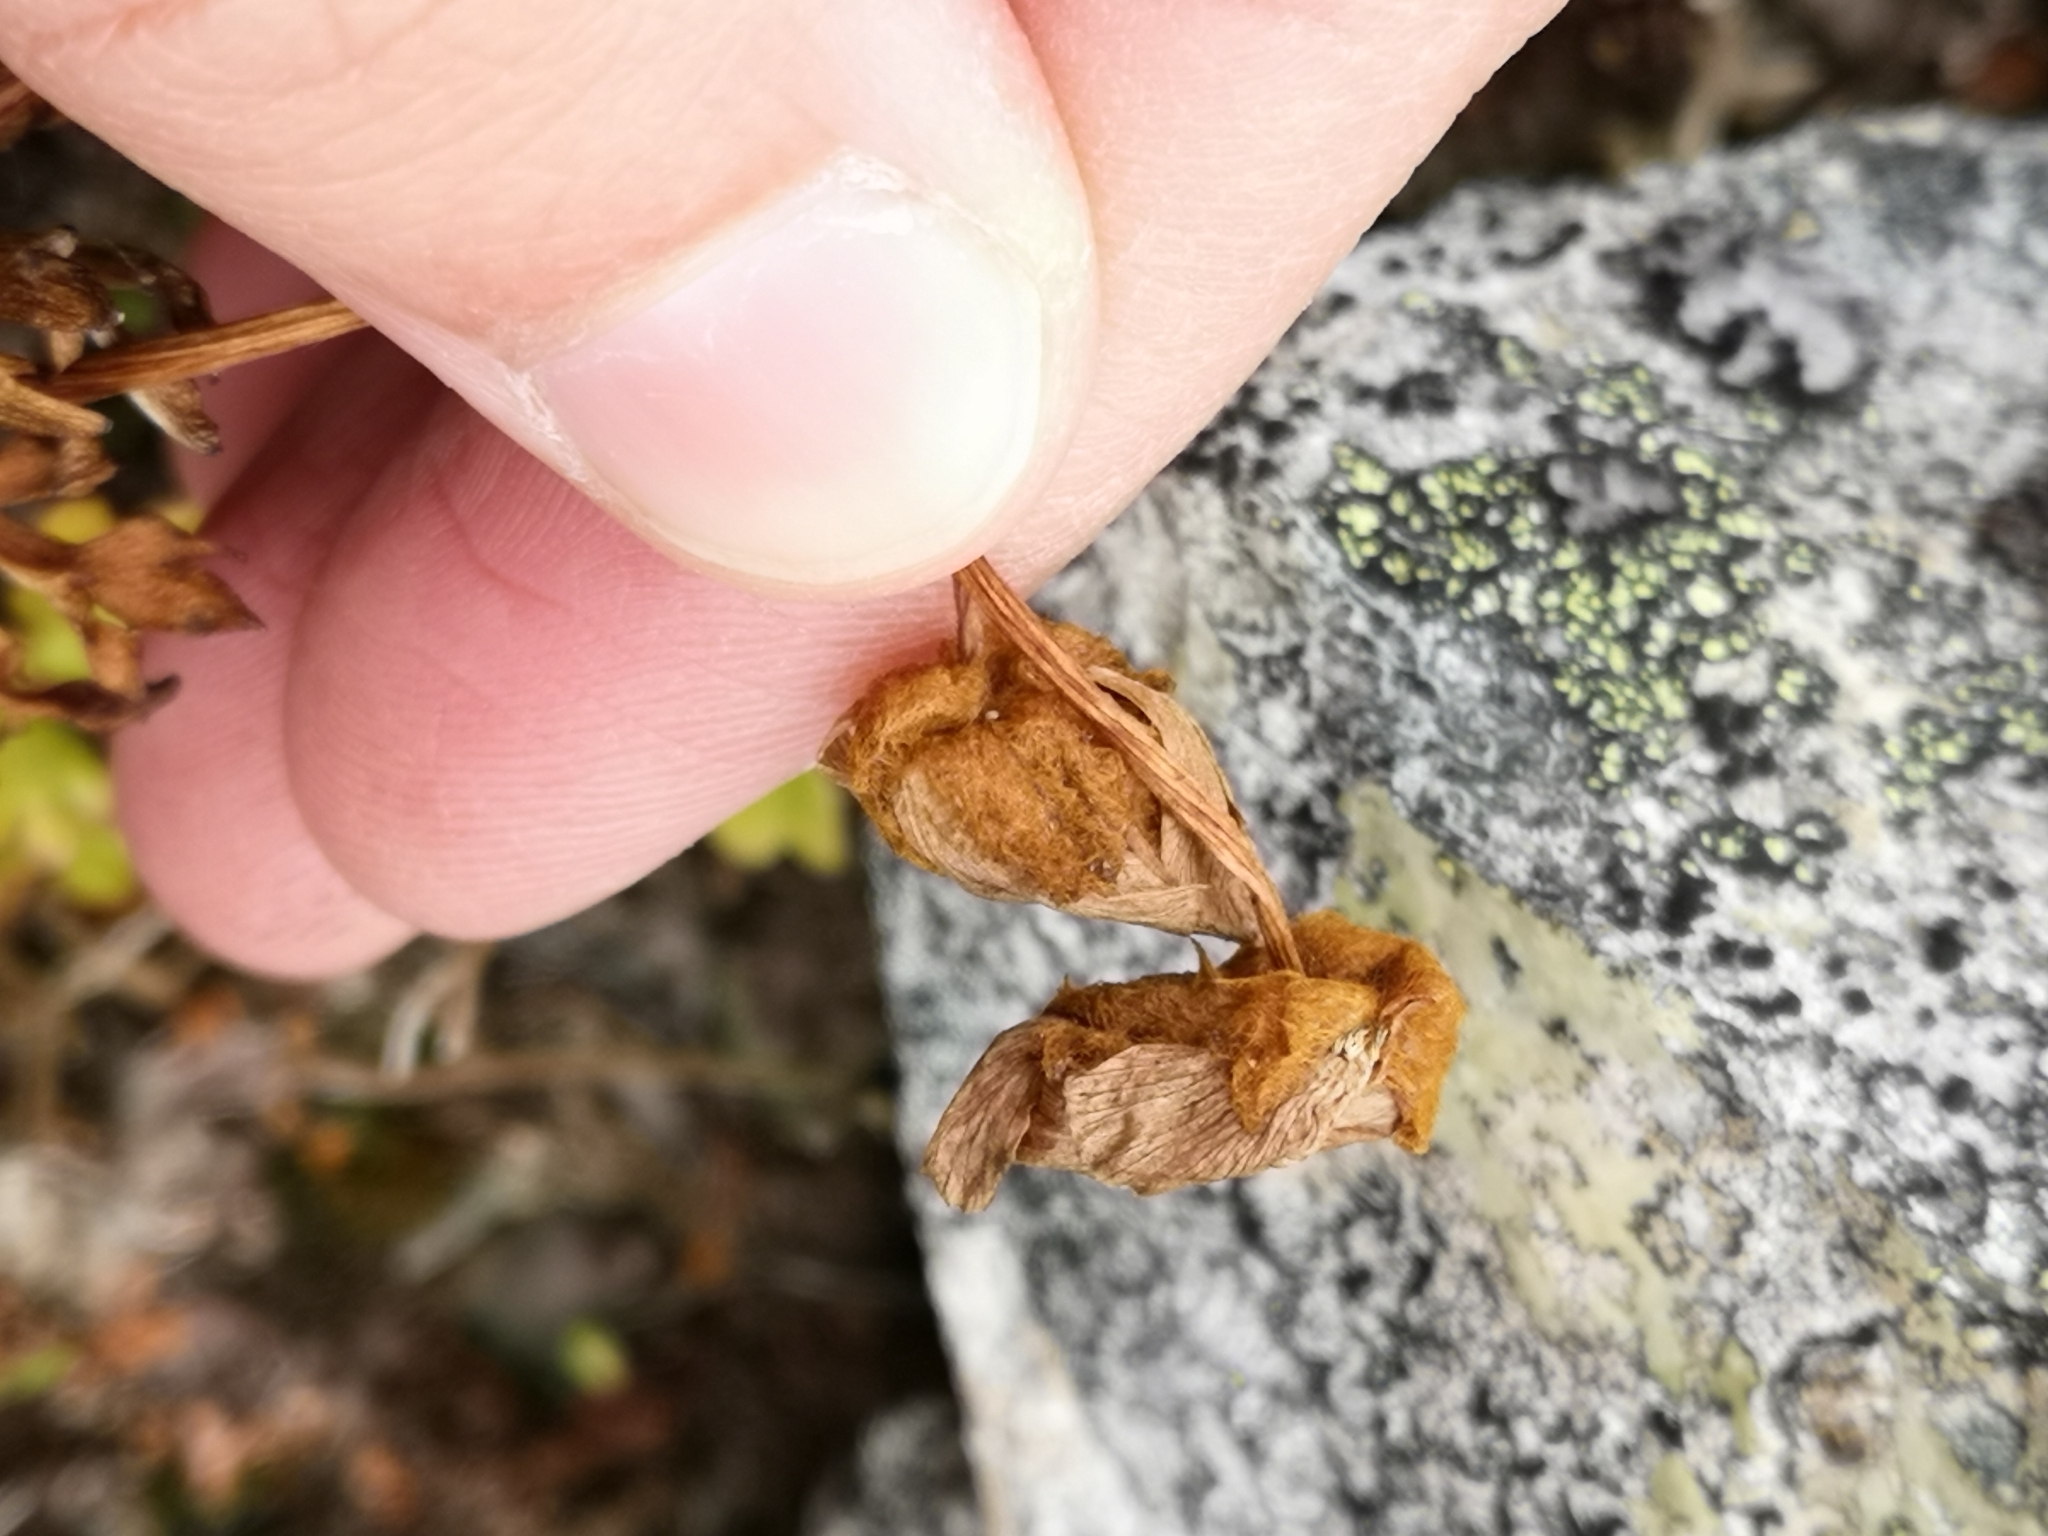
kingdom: Plantae
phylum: Tracheophyta
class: Magnoliopsida
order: Ranunculales
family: Ranunculaceae
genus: Ranunculus
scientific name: Ranunculus glacialis
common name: Glacier buttercup
